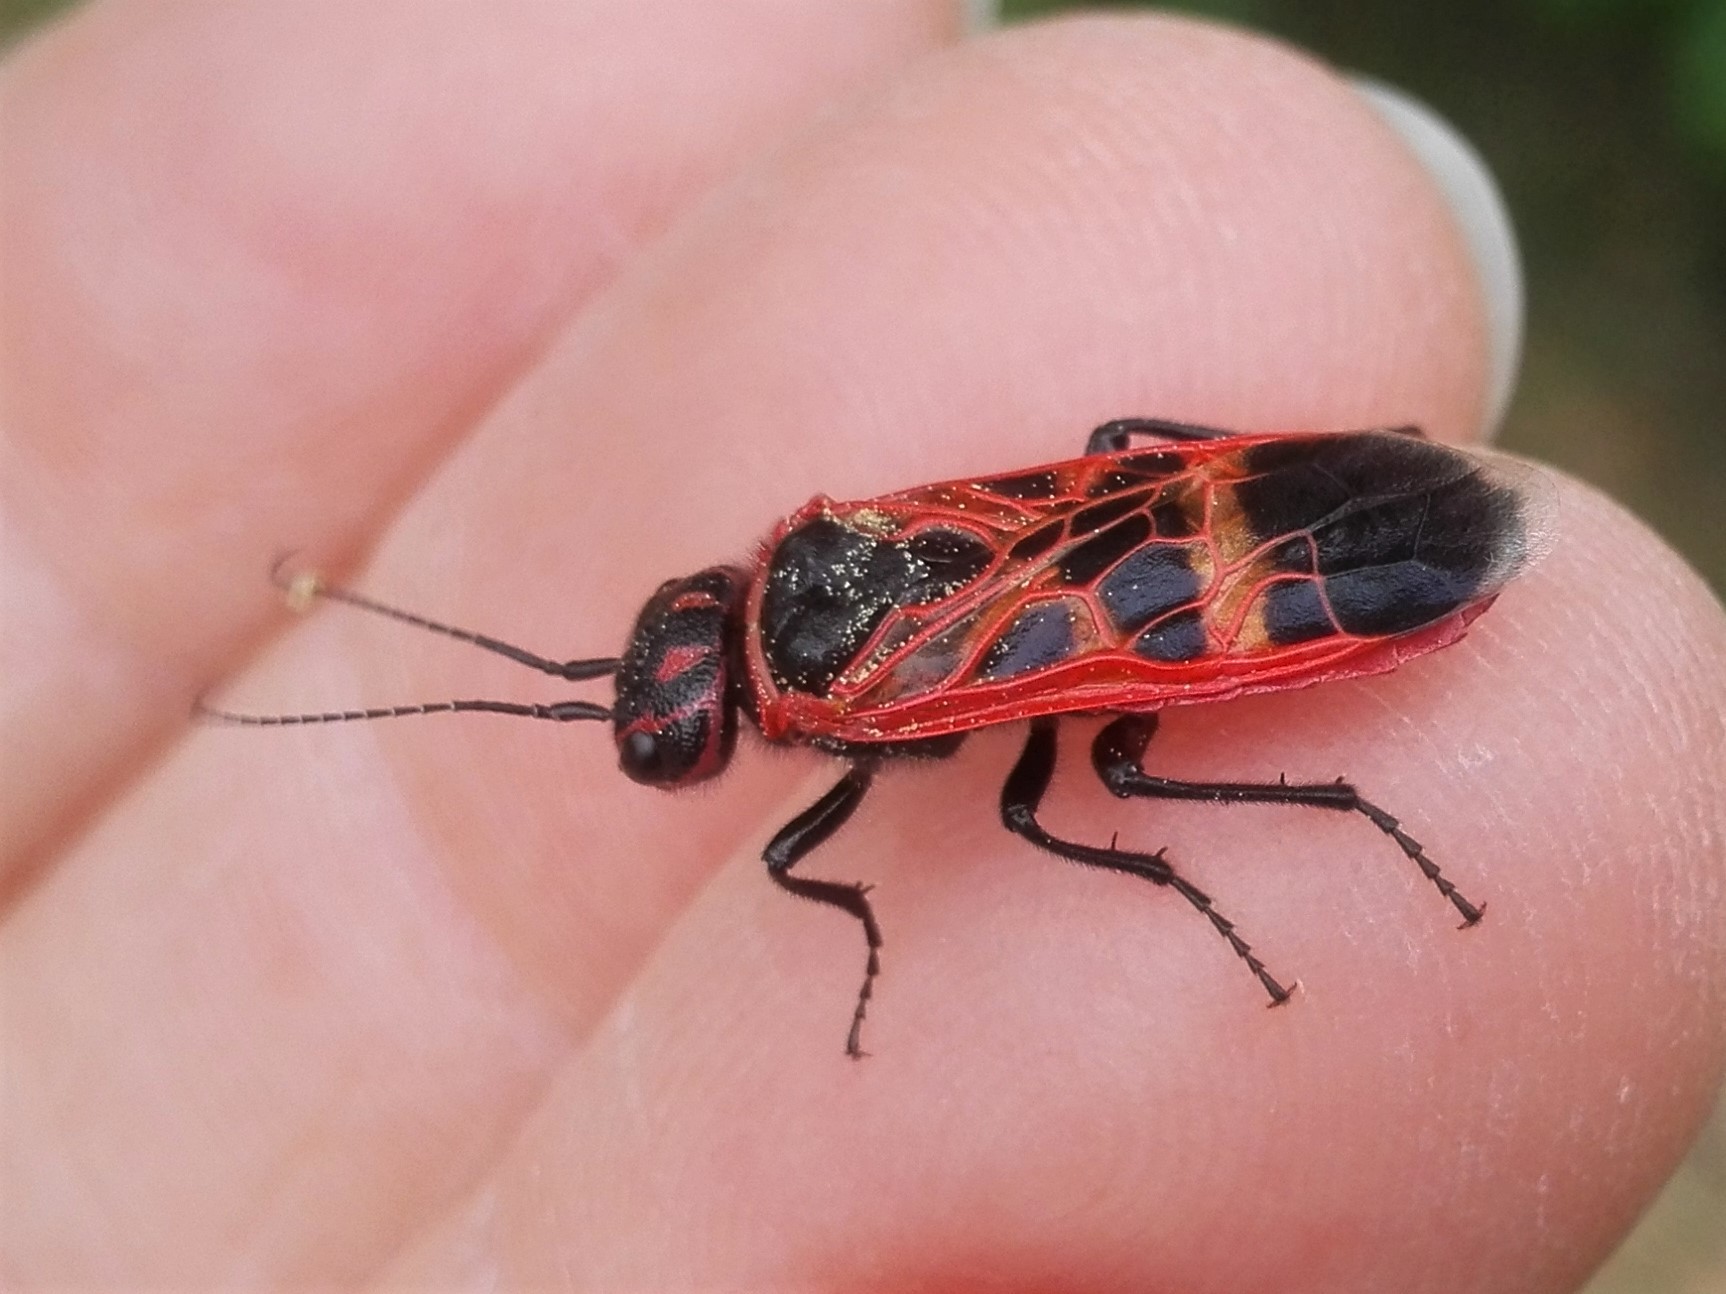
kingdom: Animalia
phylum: Arthropoda
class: Insecta
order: Hymenoptera
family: Pamphiliidae
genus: Caenolyda
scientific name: Caenolyda reticulata
